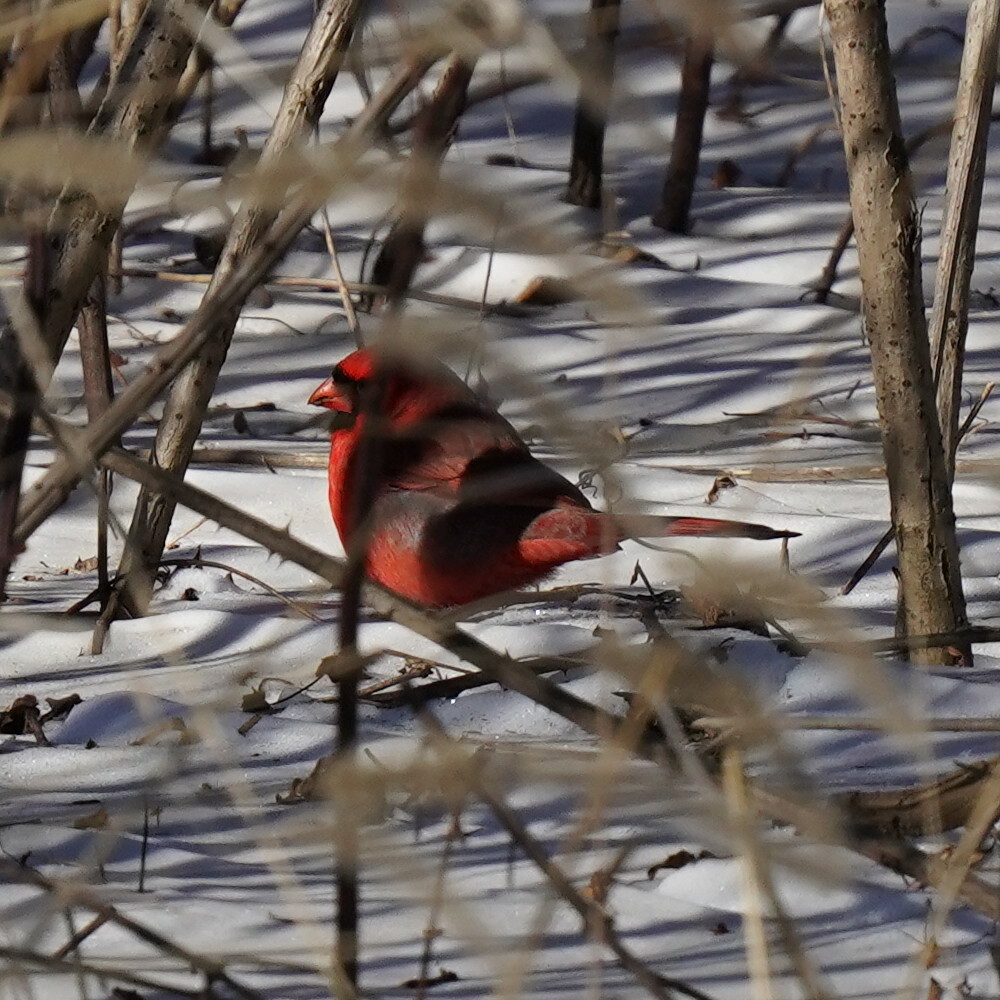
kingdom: Animalia
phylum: Chordata
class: Aves
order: Passeriformes
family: Cardinalidae
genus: Cardinalis
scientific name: Cardinalis cardinalis
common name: Northern cardinal
